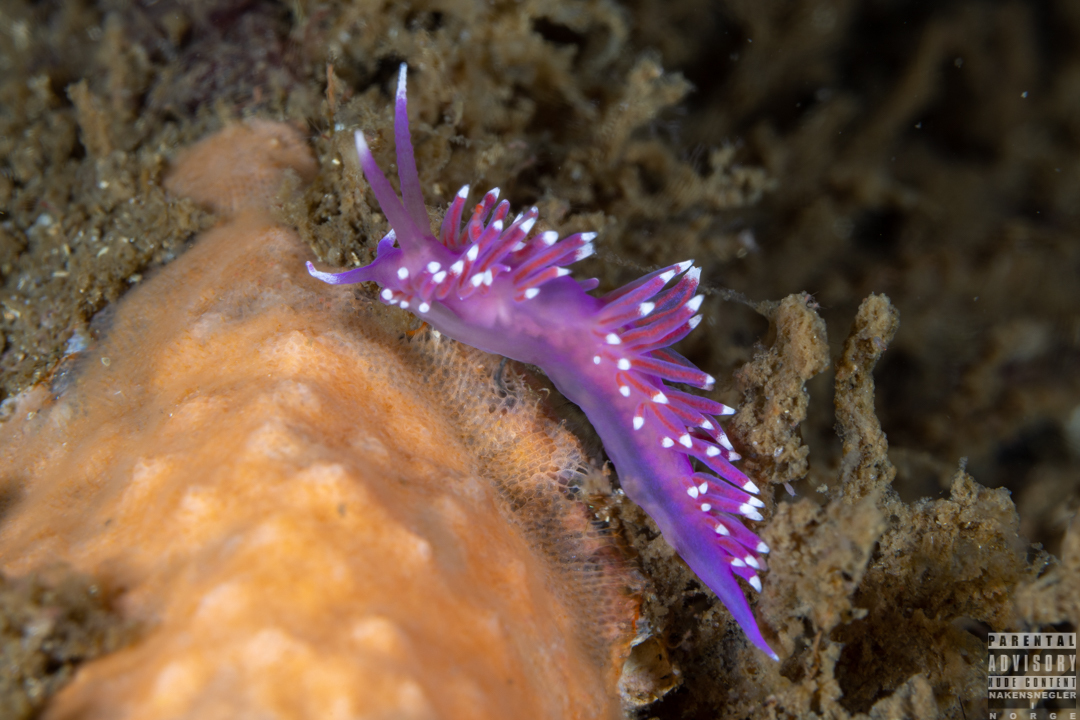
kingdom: Animalia
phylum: Mollusca
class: Gastropoda
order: Nudibranchia
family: Flabellinidae
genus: Edmundsella
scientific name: Edmundsella pedata
